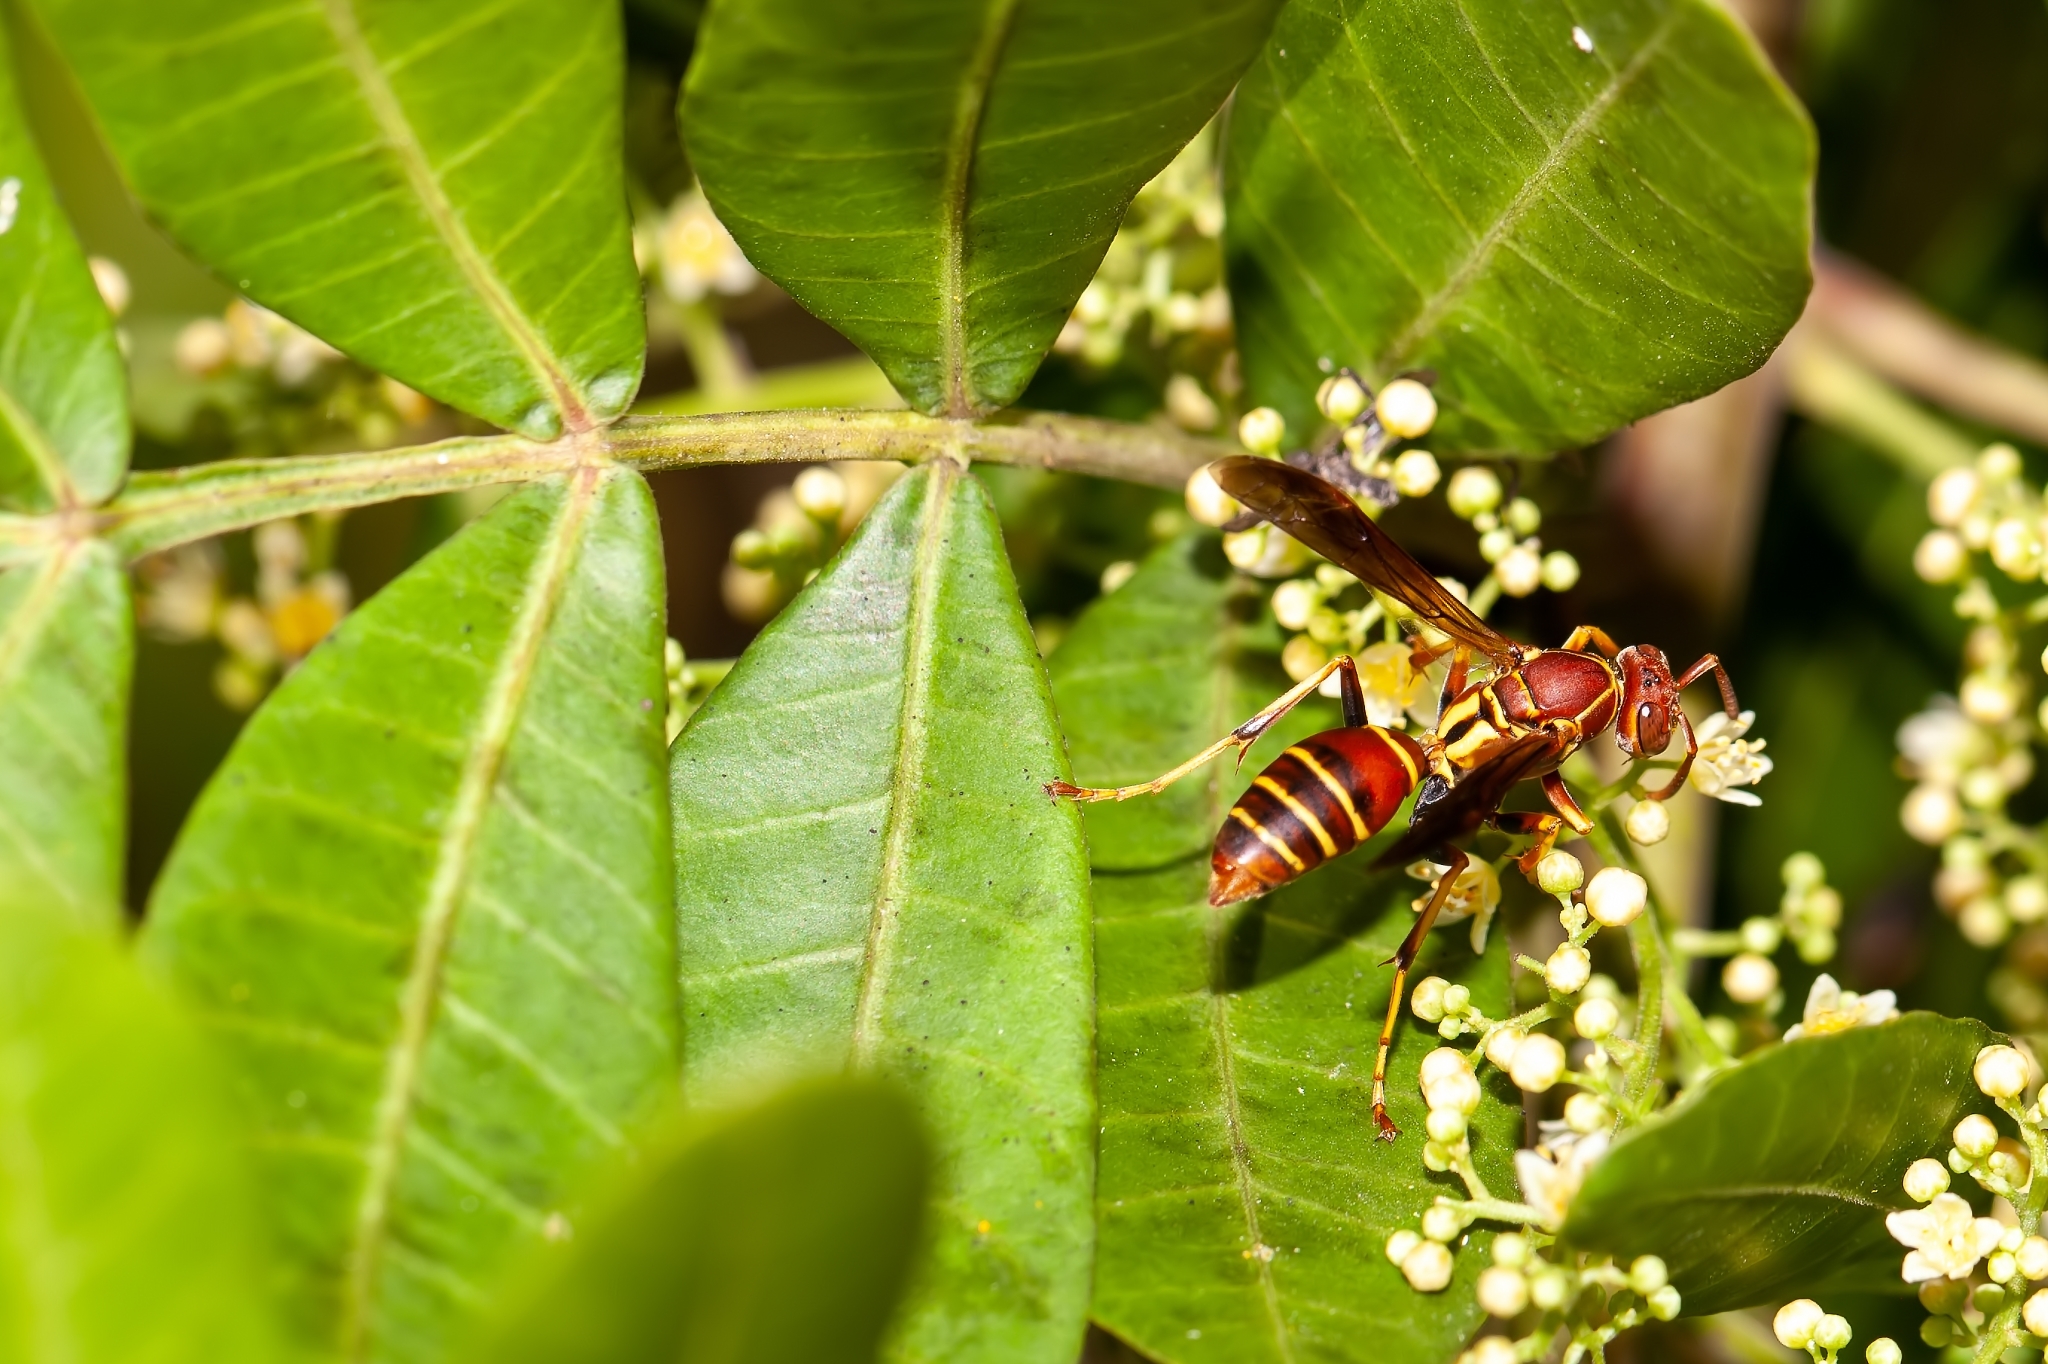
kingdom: Animalia
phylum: Arthropoda
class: Insecta
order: Hymenoptera
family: Eumenidae
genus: Polistes
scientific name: Polistes dorsalis
